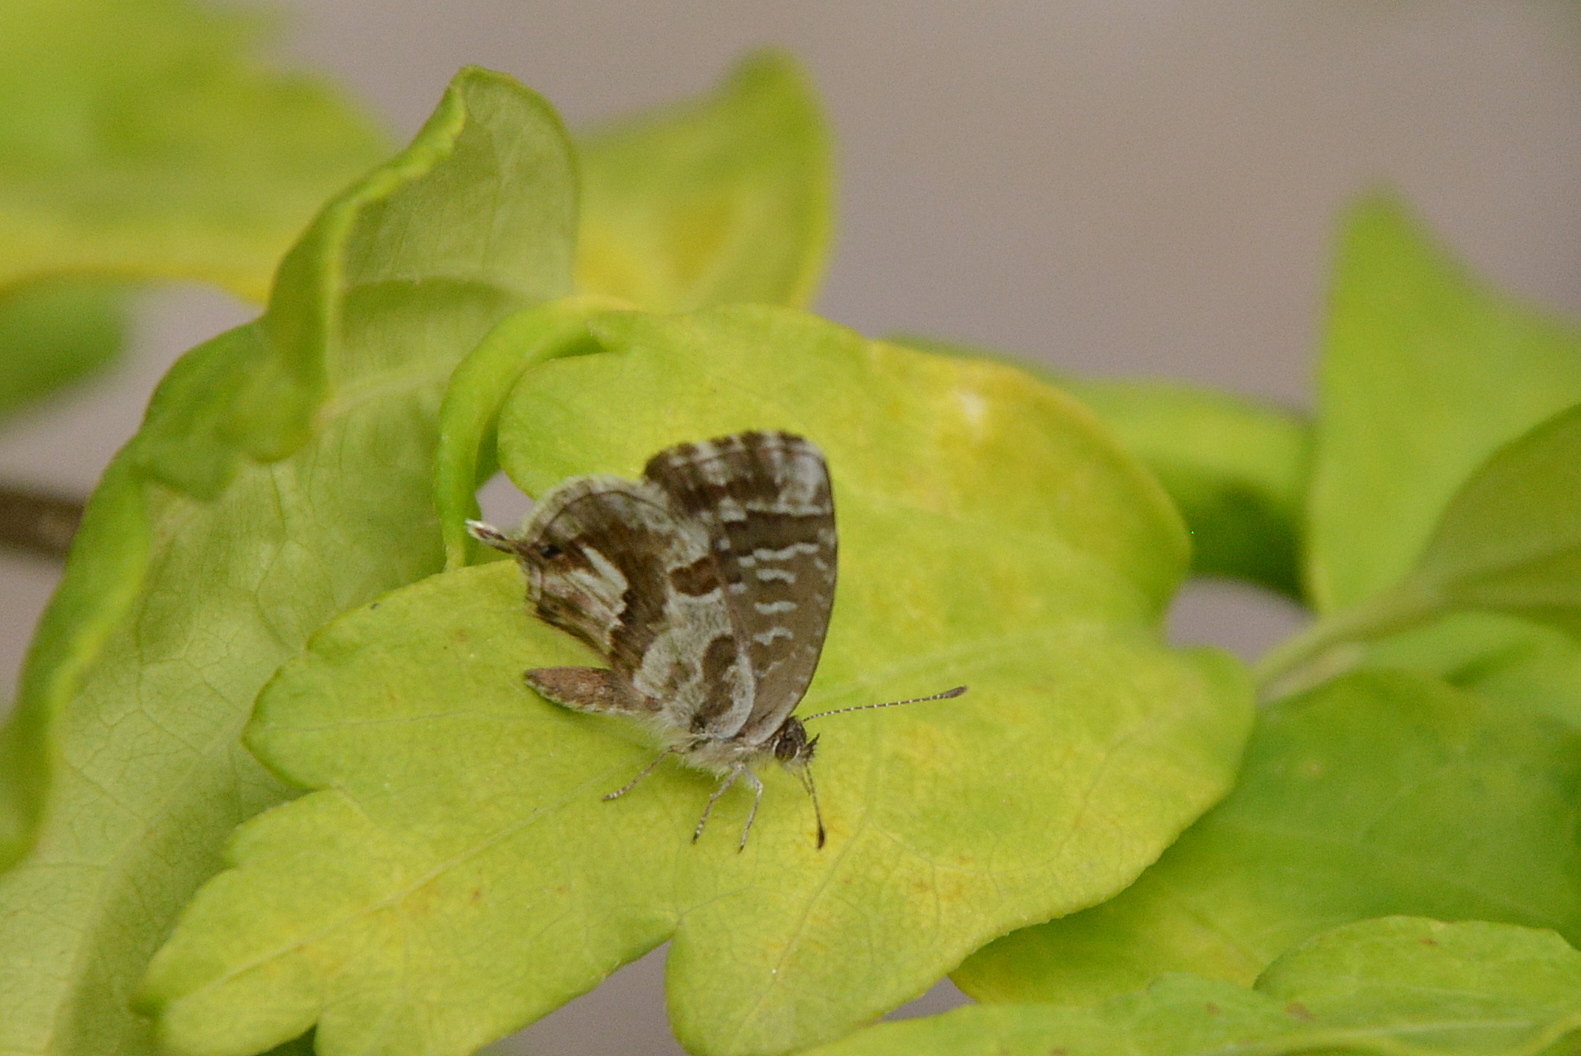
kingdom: Animalia
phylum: Arthropoda
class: Insecta
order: Lepidoptera
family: Lycaenidae
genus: Cacyreus
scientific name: Cacyreus marshalli
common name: Geranium bronze
